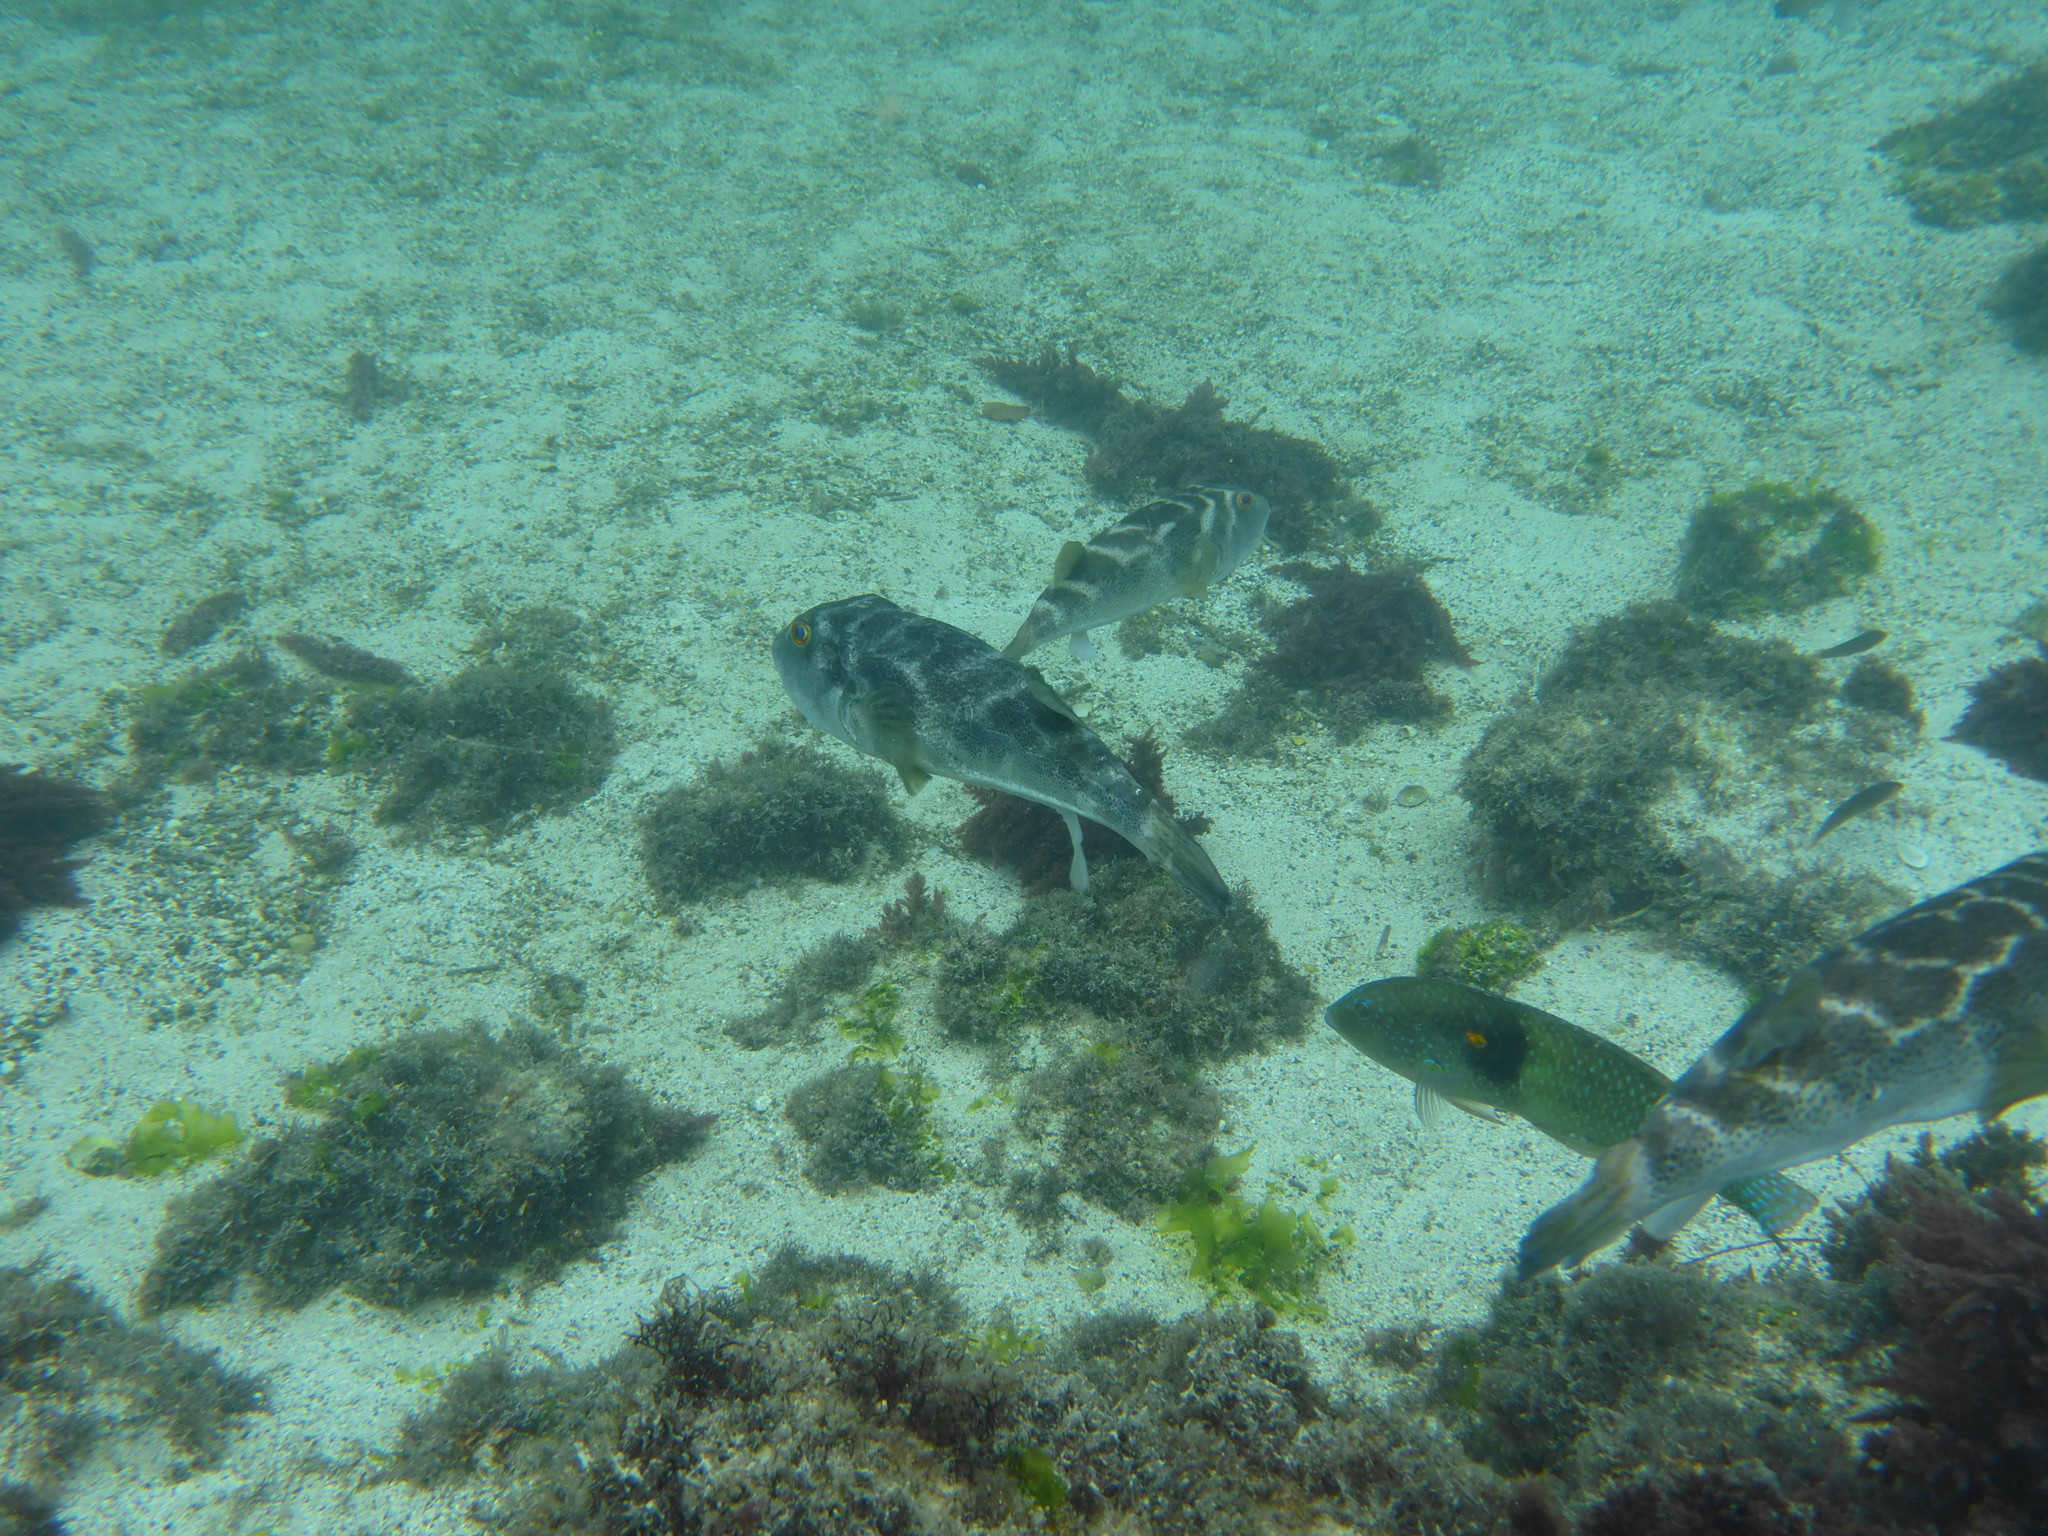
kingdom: Animalia
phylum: Chordata
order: Tetraodontiformes
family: Tetraodontidae
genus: Sphoeroides
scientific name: Sphoeroides annulatus
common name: Bullseye puffer
